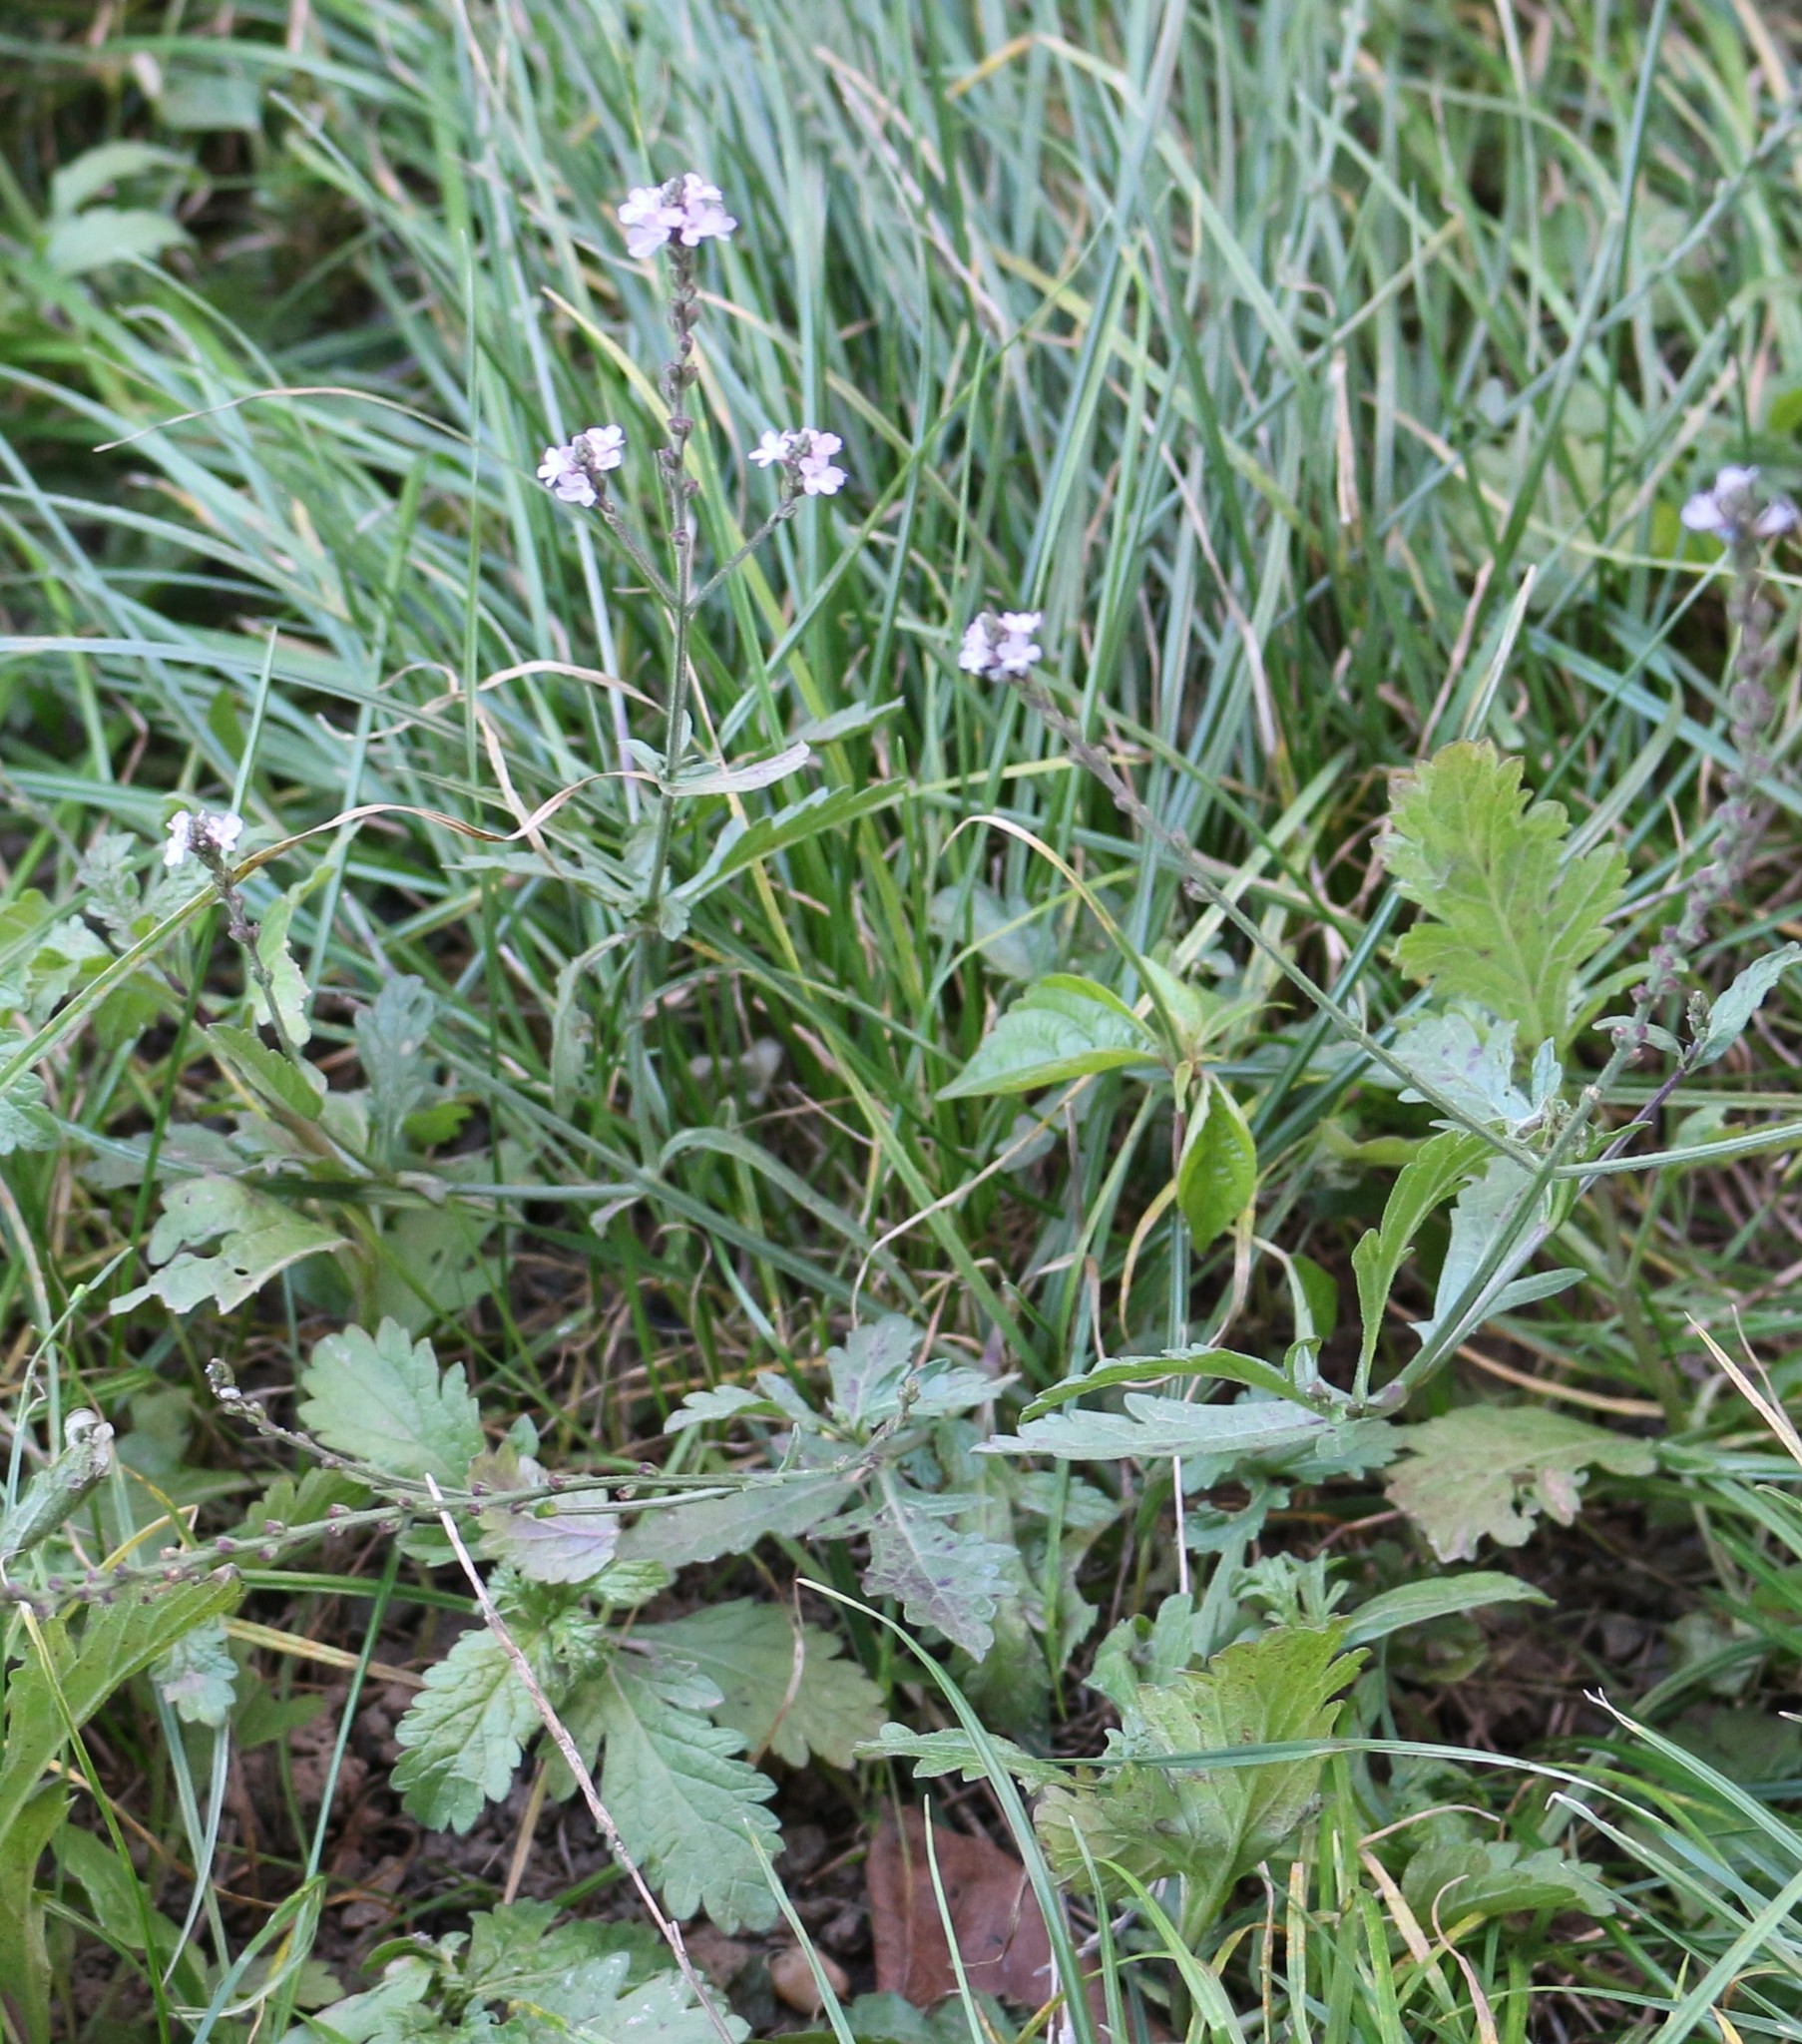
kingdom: Plantae
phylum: Tracheophyta
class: Magnoliopsida
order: Lamiales
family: Verbenaceae
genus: Verbena
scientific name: Verbena officinalis
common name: Vervain
